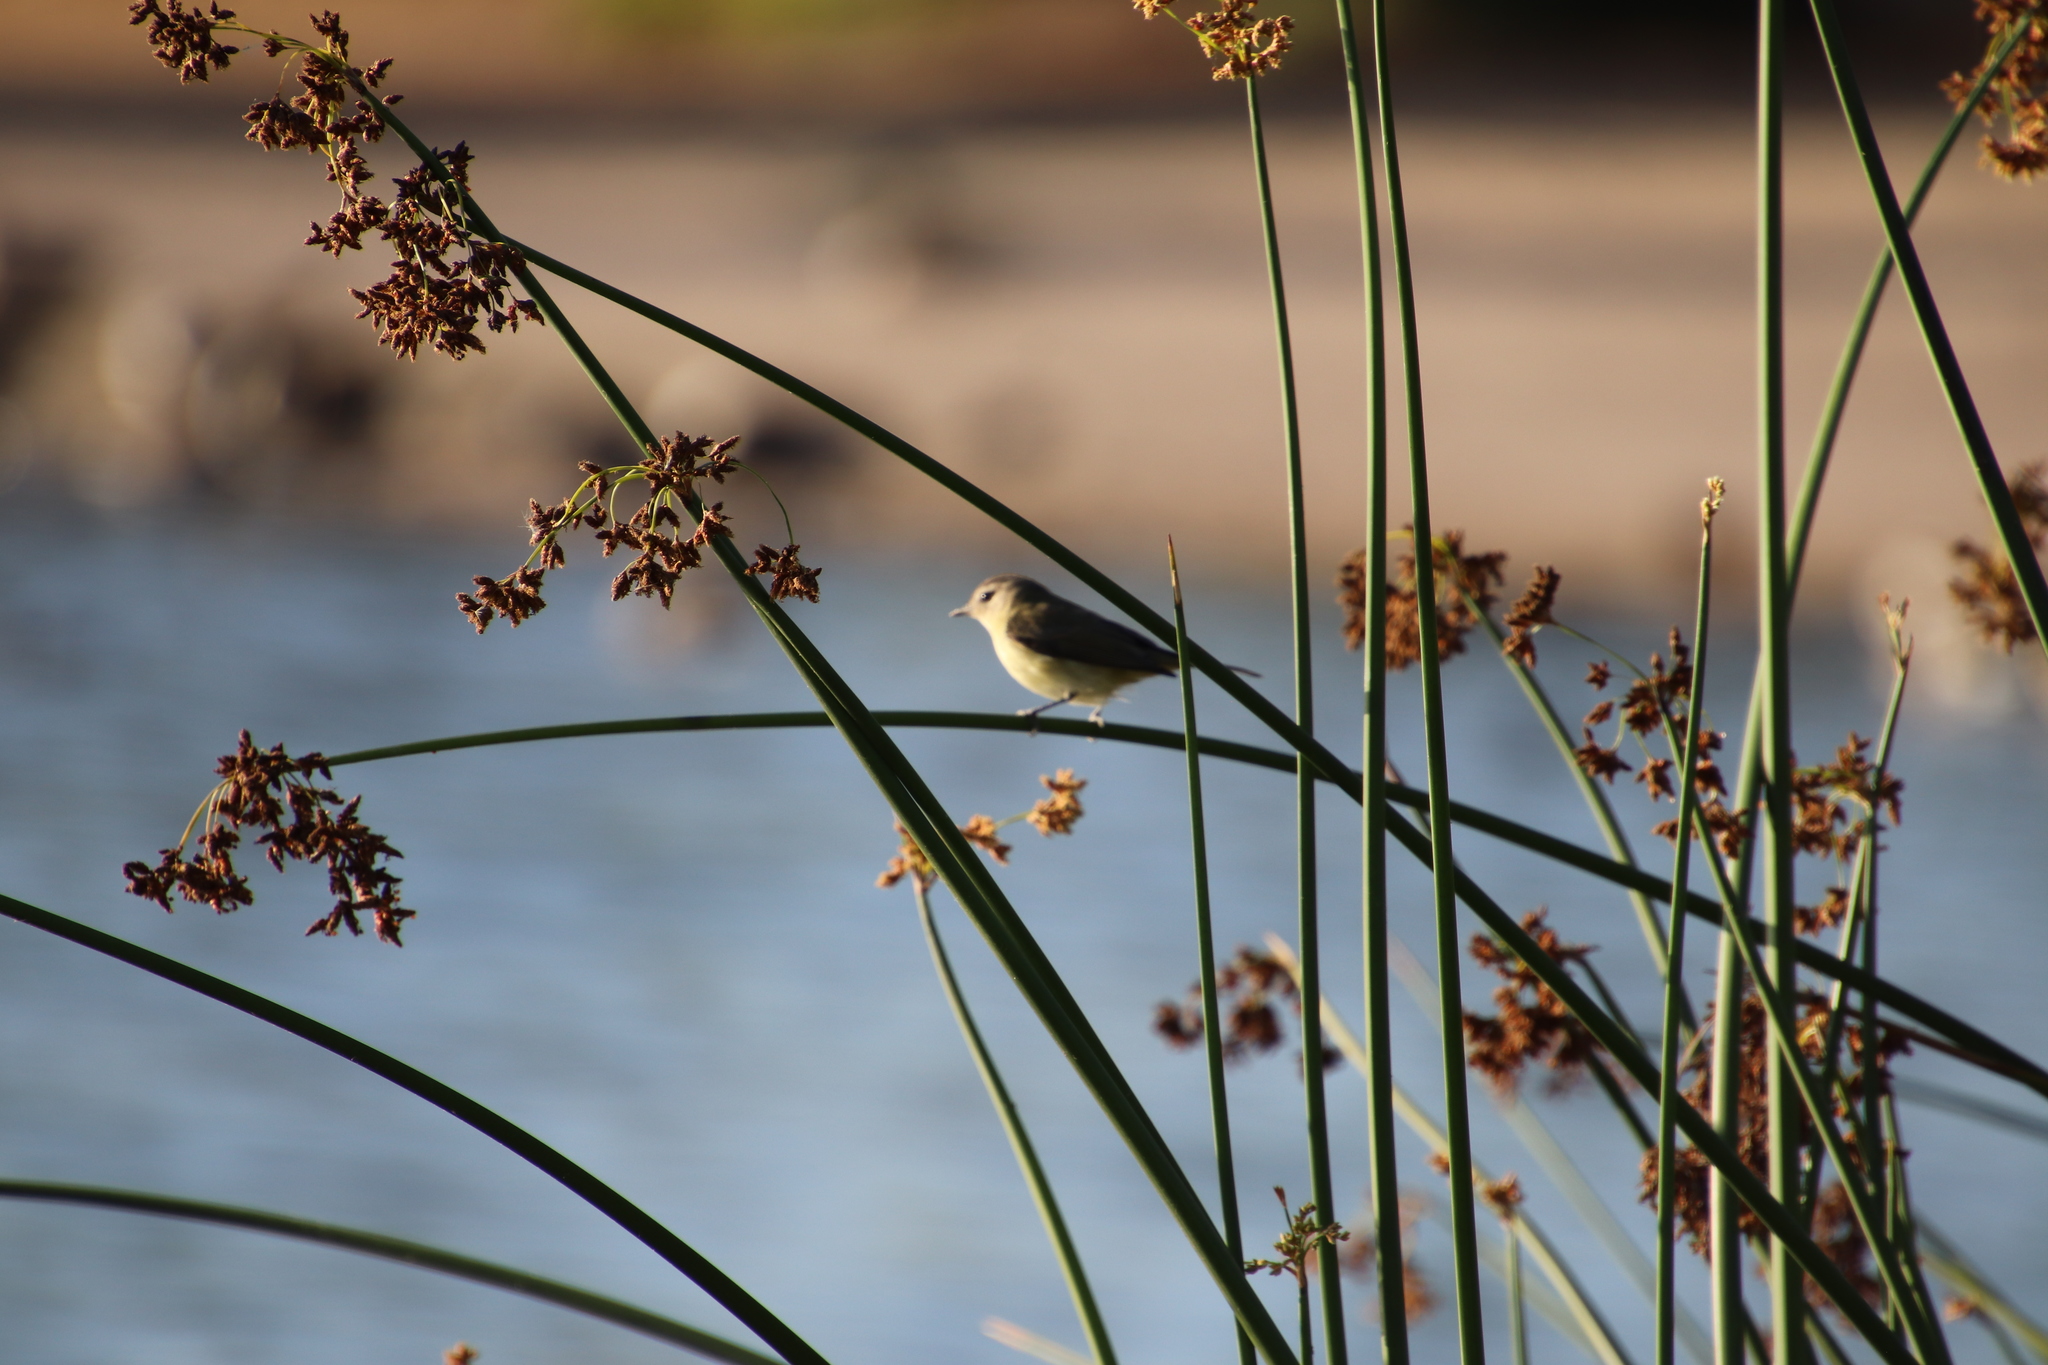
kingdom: Animalia
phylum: Chordata
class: Aves
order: Passeriformes
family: Vireonidae
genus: Vireo
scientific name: Vireo gilvus
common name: Warbling vireo
